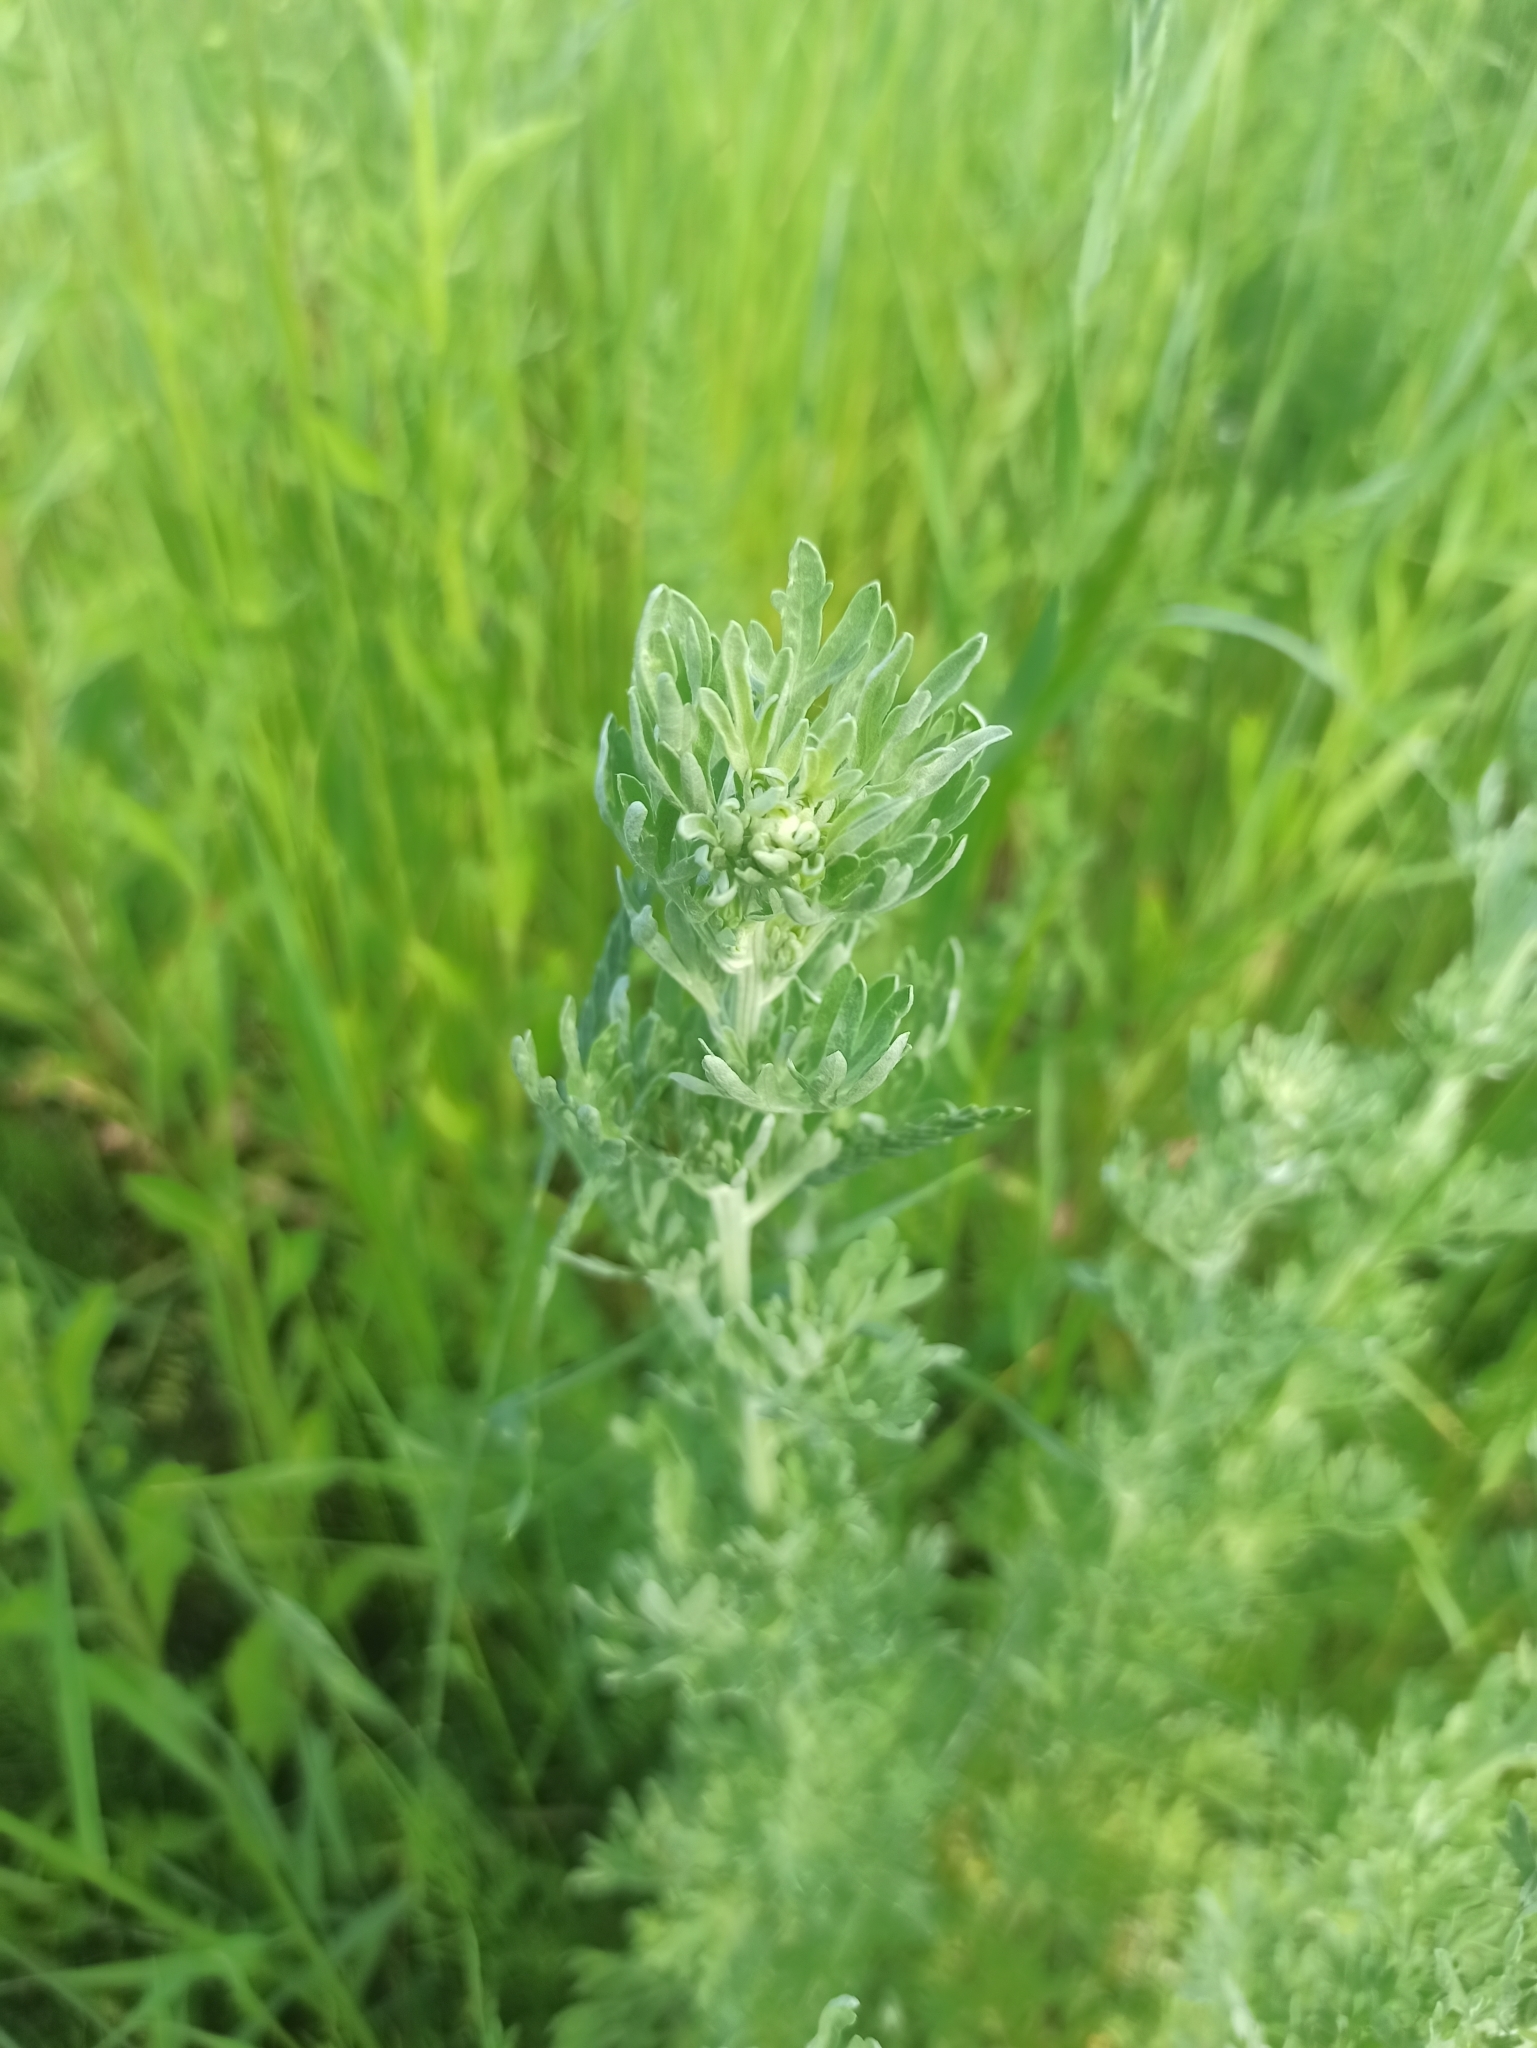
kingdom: Plantae
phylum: Tracheophyta
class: Magnoliopsida
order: Asterales
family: Asteraceae
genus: Artemisia
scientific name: Artemisia absinthium
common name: Wormwood
